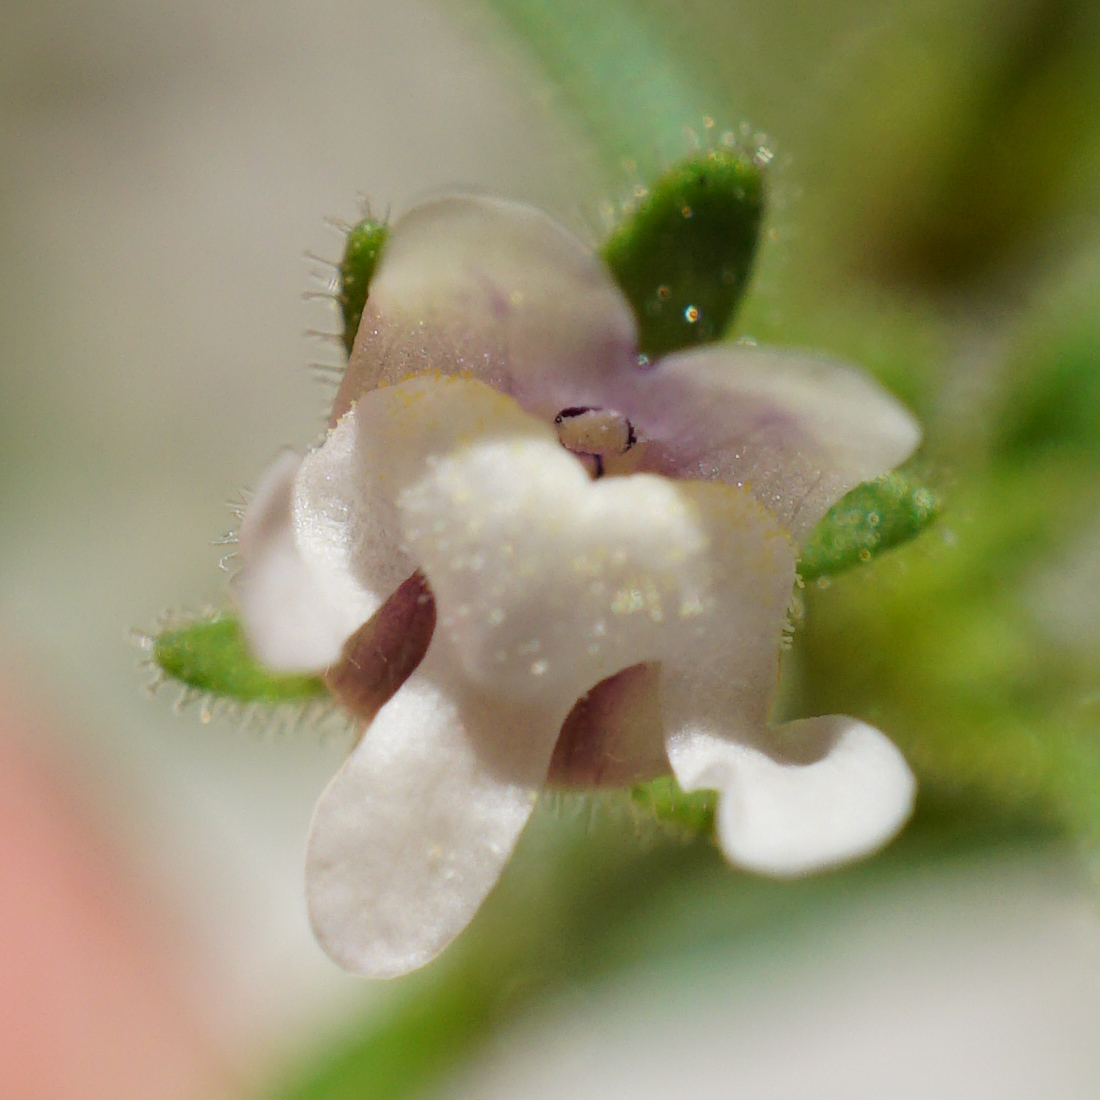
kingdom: Plantae
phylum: Tracheophyta
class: Magnoliopsida
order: Lamiales
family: Plantaginaceae
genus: Chaenorhinum
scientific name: Chaenorhinum minus
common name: Dwarf snapdragon
